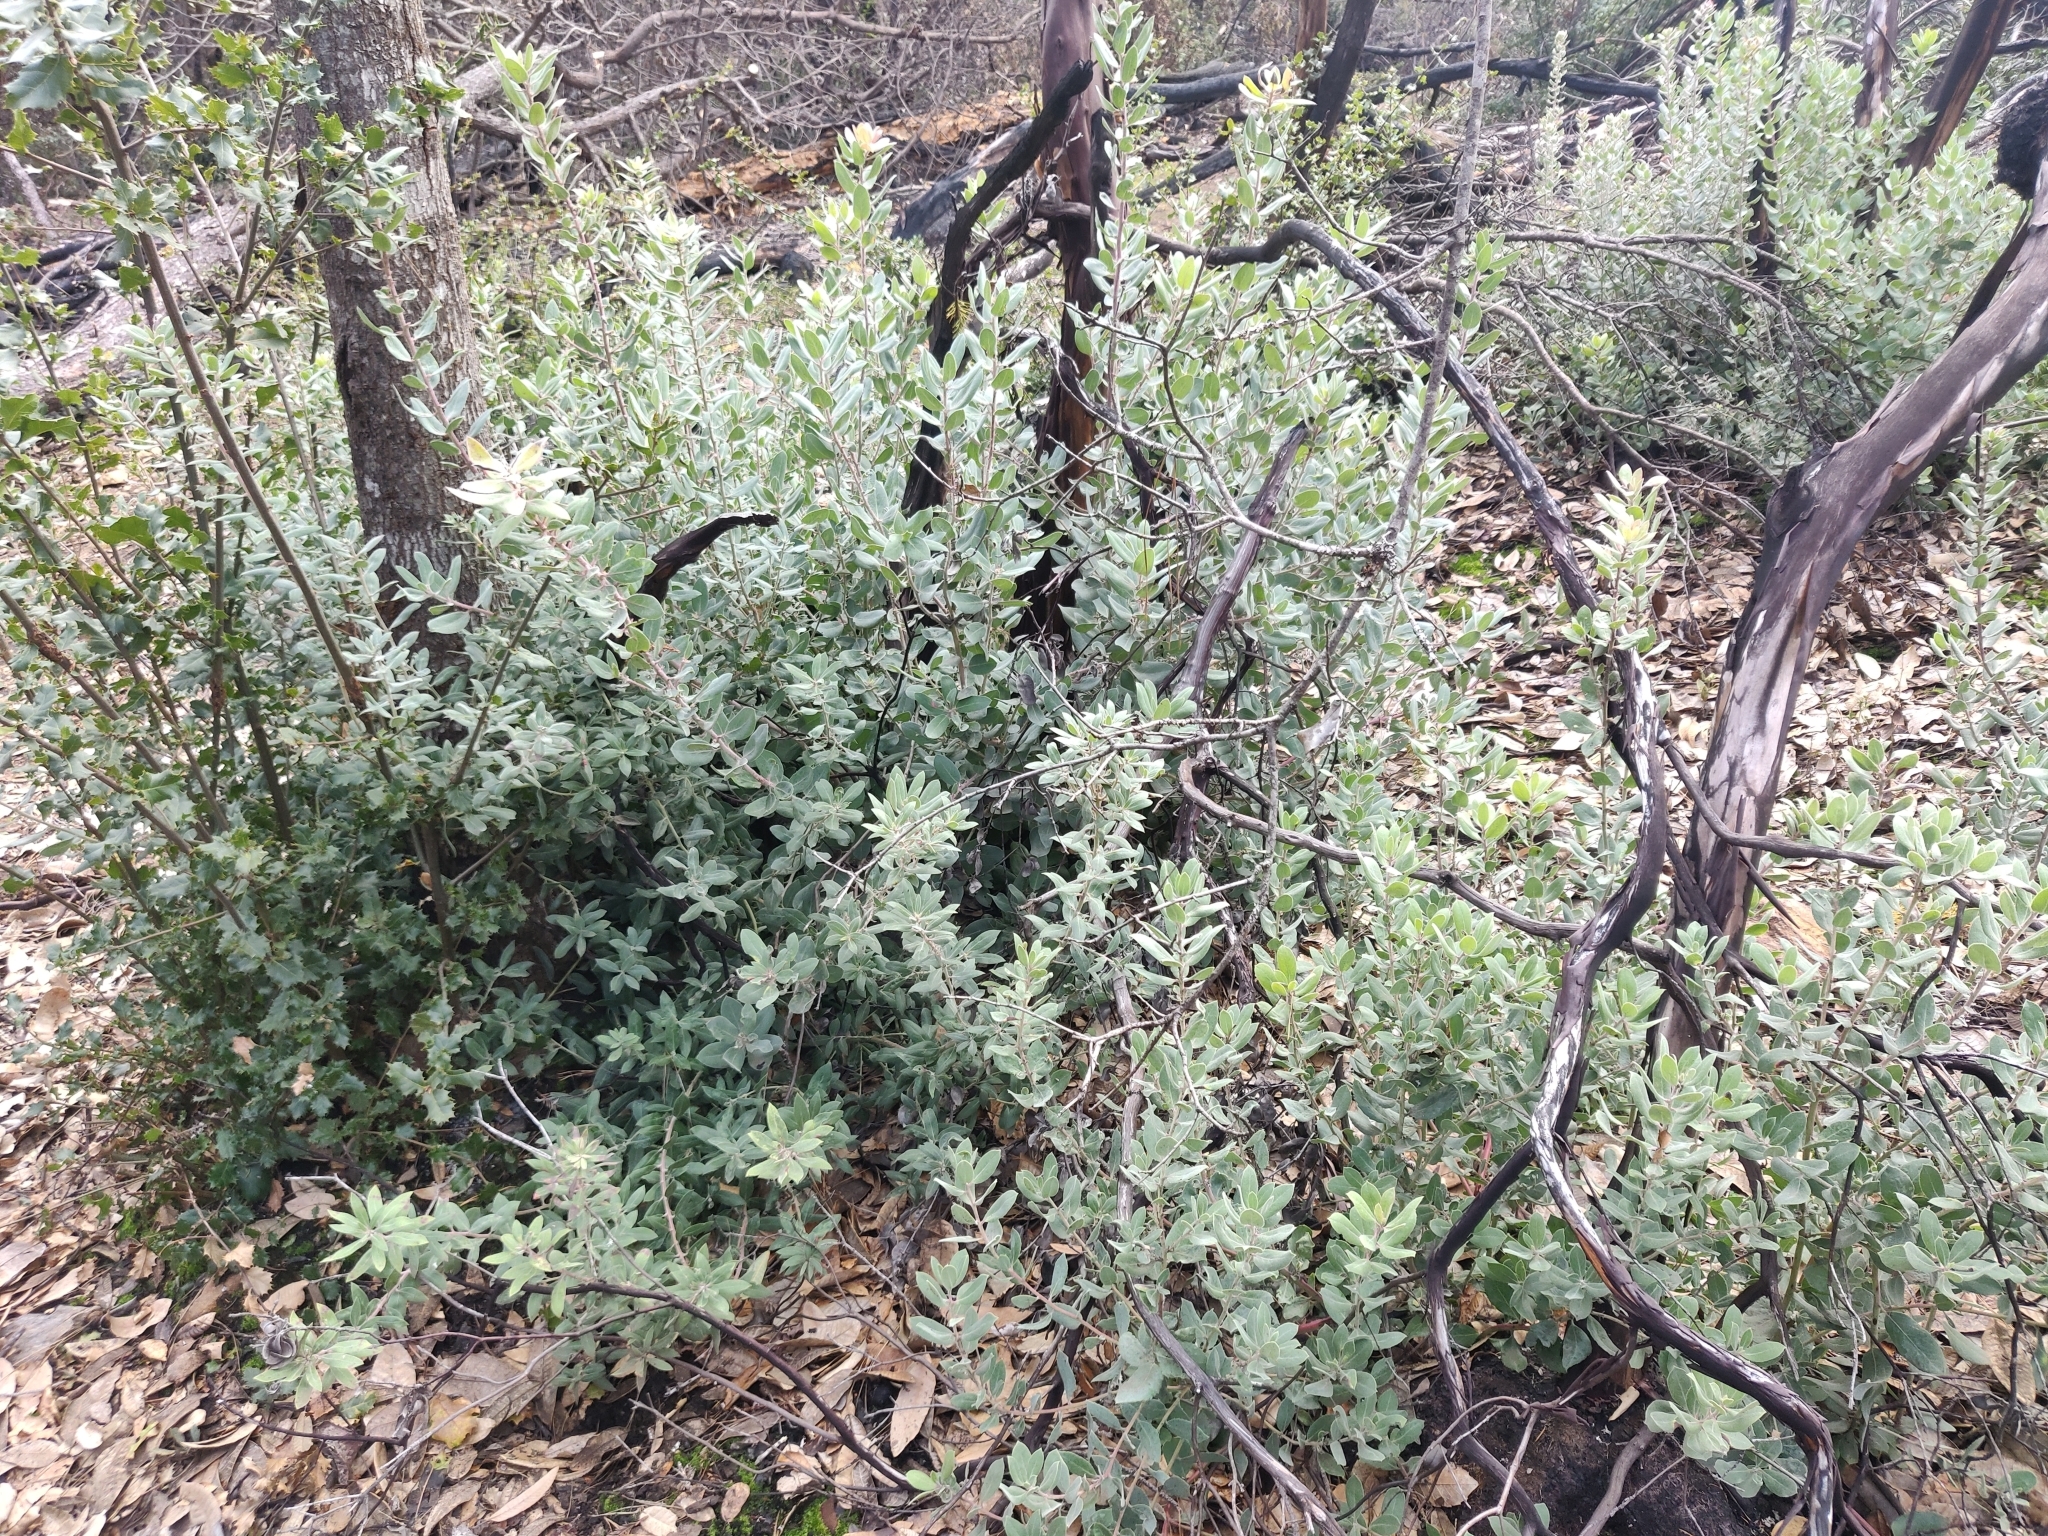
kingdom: Plantae
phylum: Tracheophyta
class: Magnoliopsida
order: Ericales
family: Ericaceae
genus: Arctostaphylos
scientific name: Arctostaphylos crustacea
